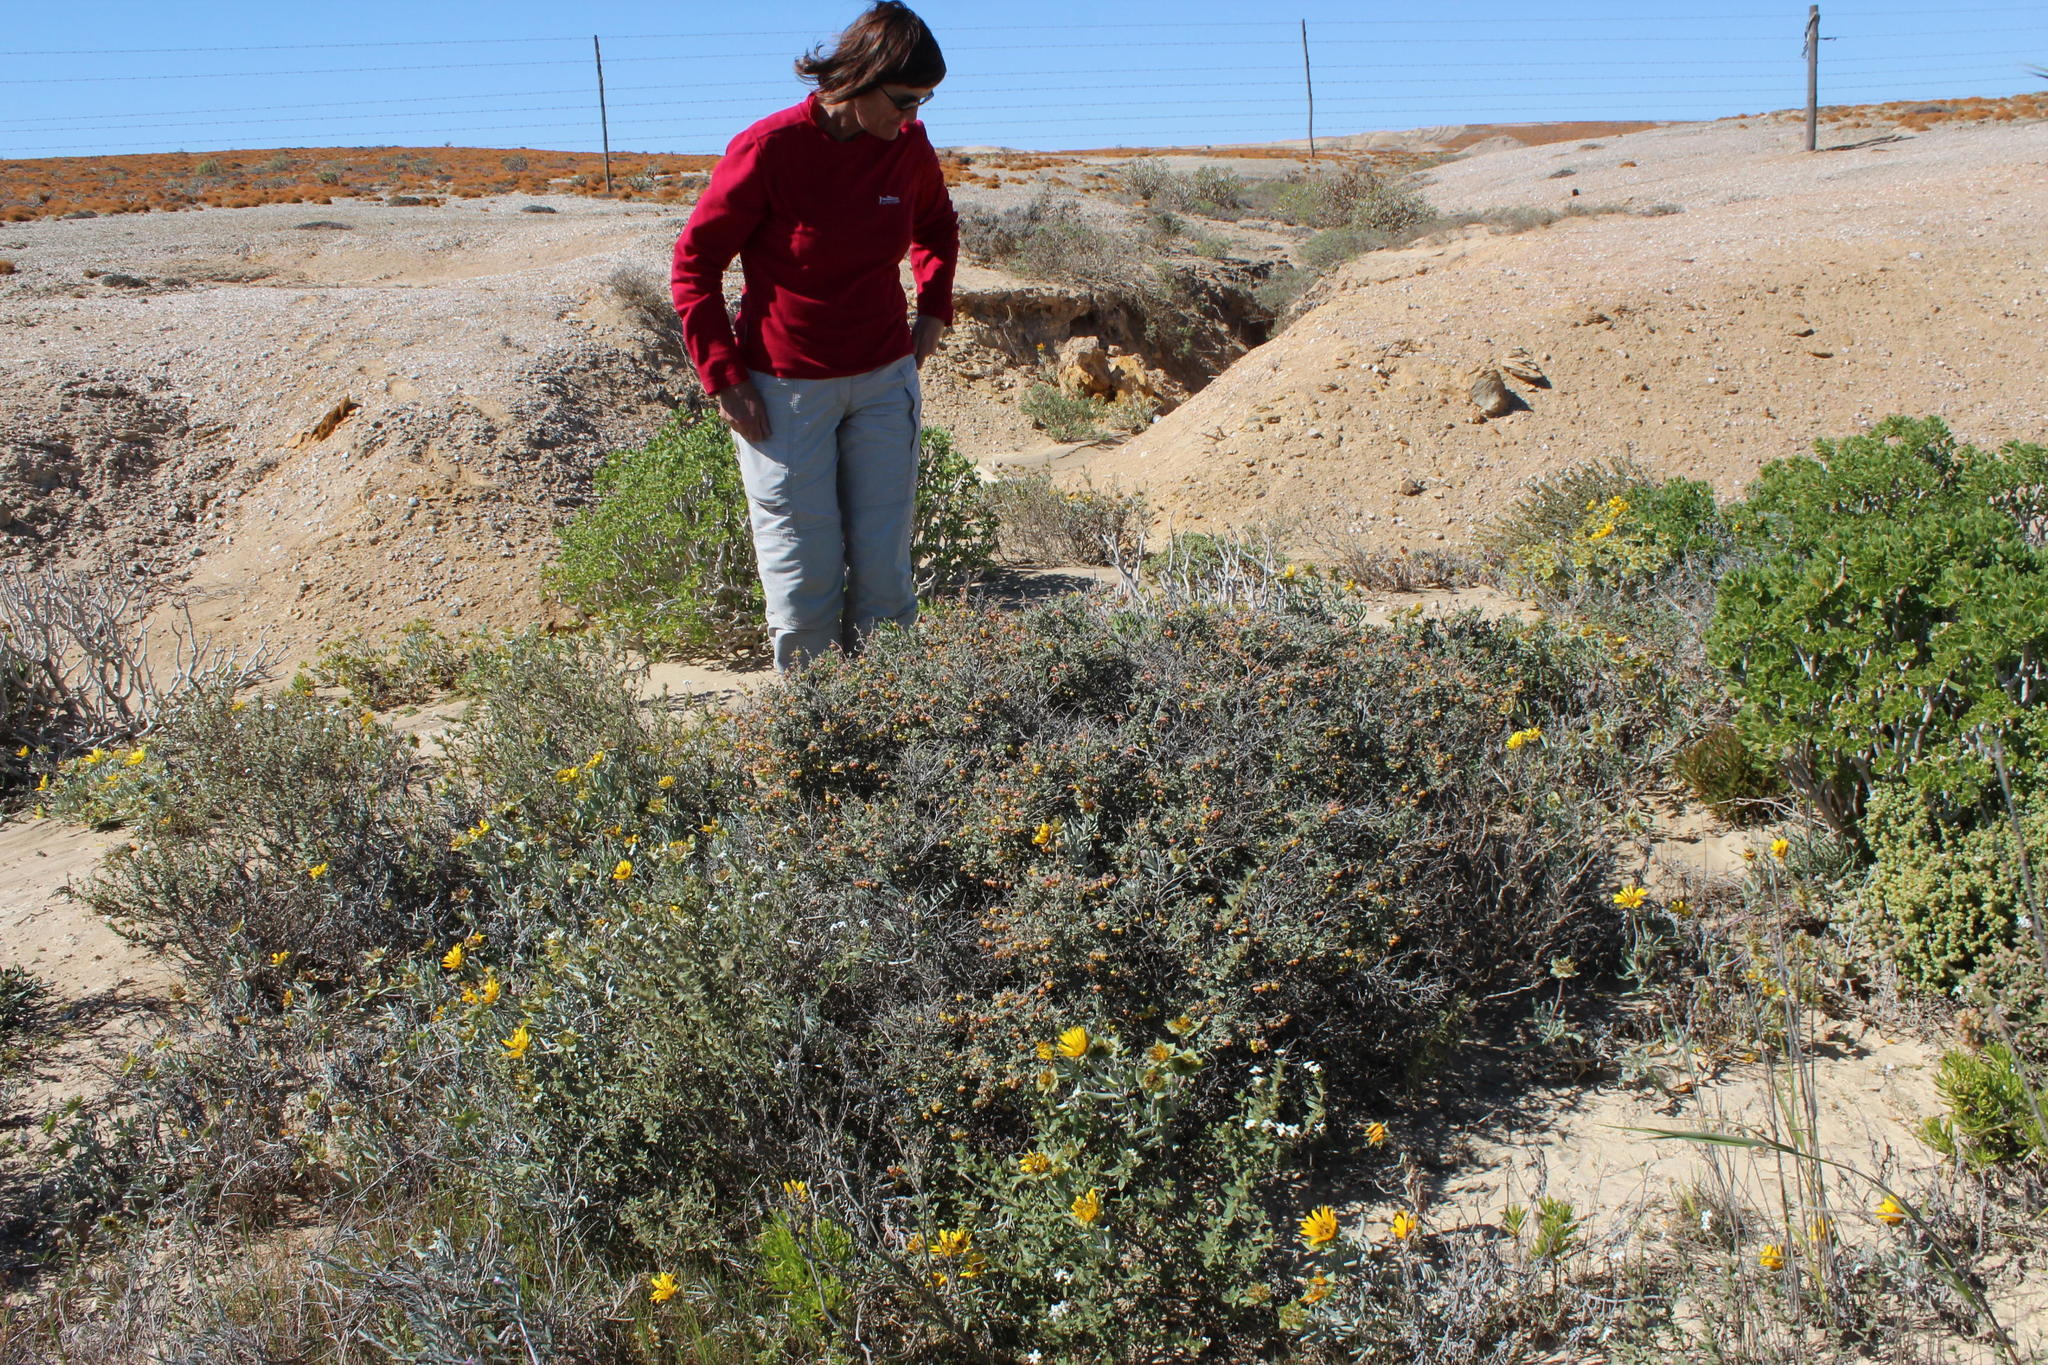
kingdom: Plantae
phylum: Tracheophyta
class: Magnoliopsida
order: Malvales
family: Malvaceae
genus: Hermannia
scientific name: Hermannia pfeilii
